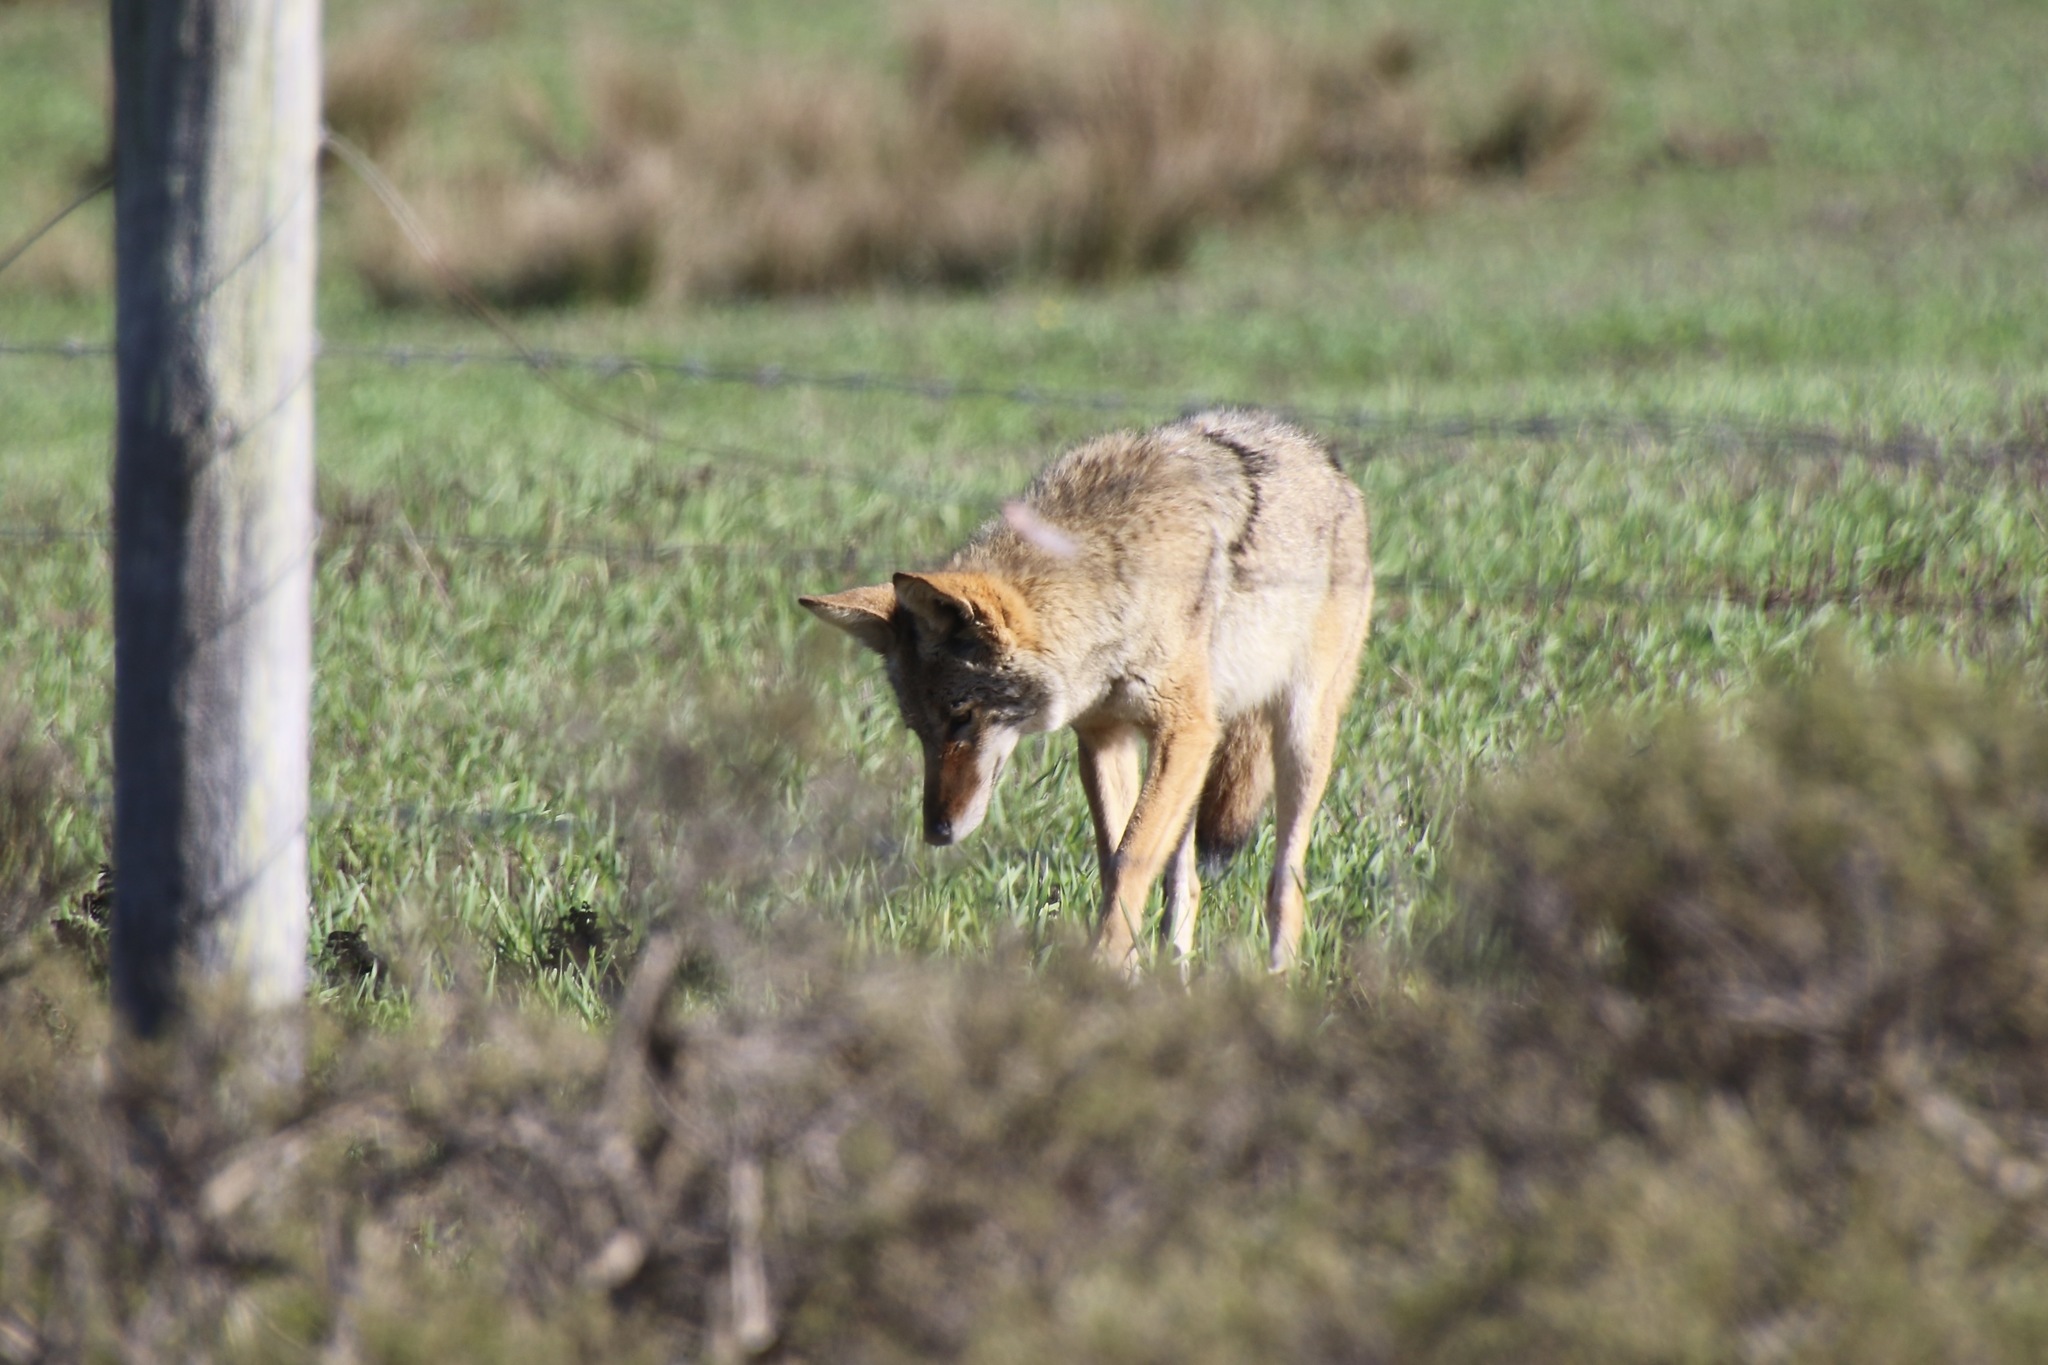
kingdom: Animalia
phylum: Chordata
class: Mammalia
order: Carnivora
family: Canidae
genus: Canis
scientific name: Canis latrans
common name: Coyote
